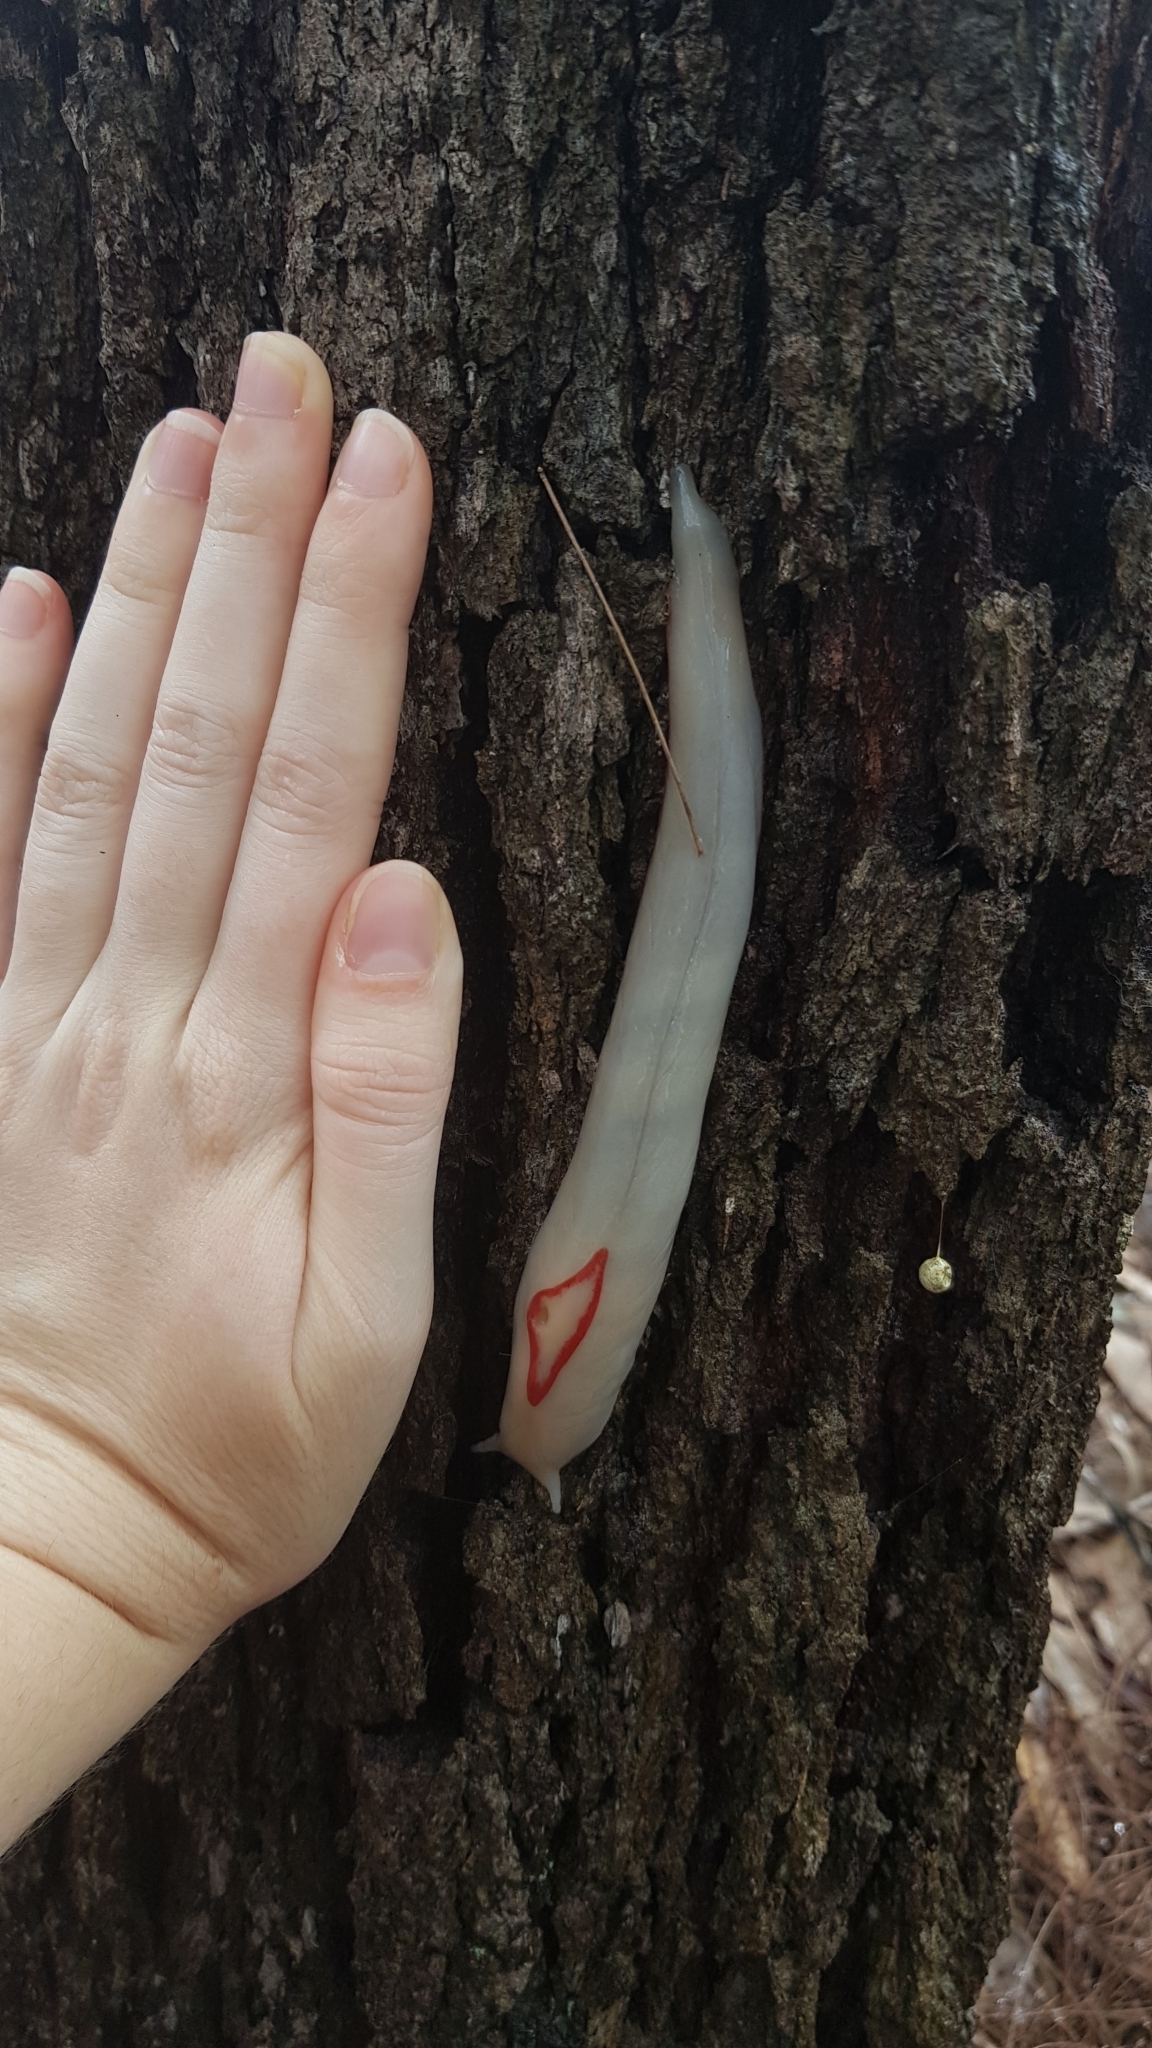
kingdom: Animalia
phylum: Mollusca
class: Gastropoda
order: Stylommatophora
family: Athoracophoridae
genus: Triboniophorus
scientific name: Triboniophorus graeffei
